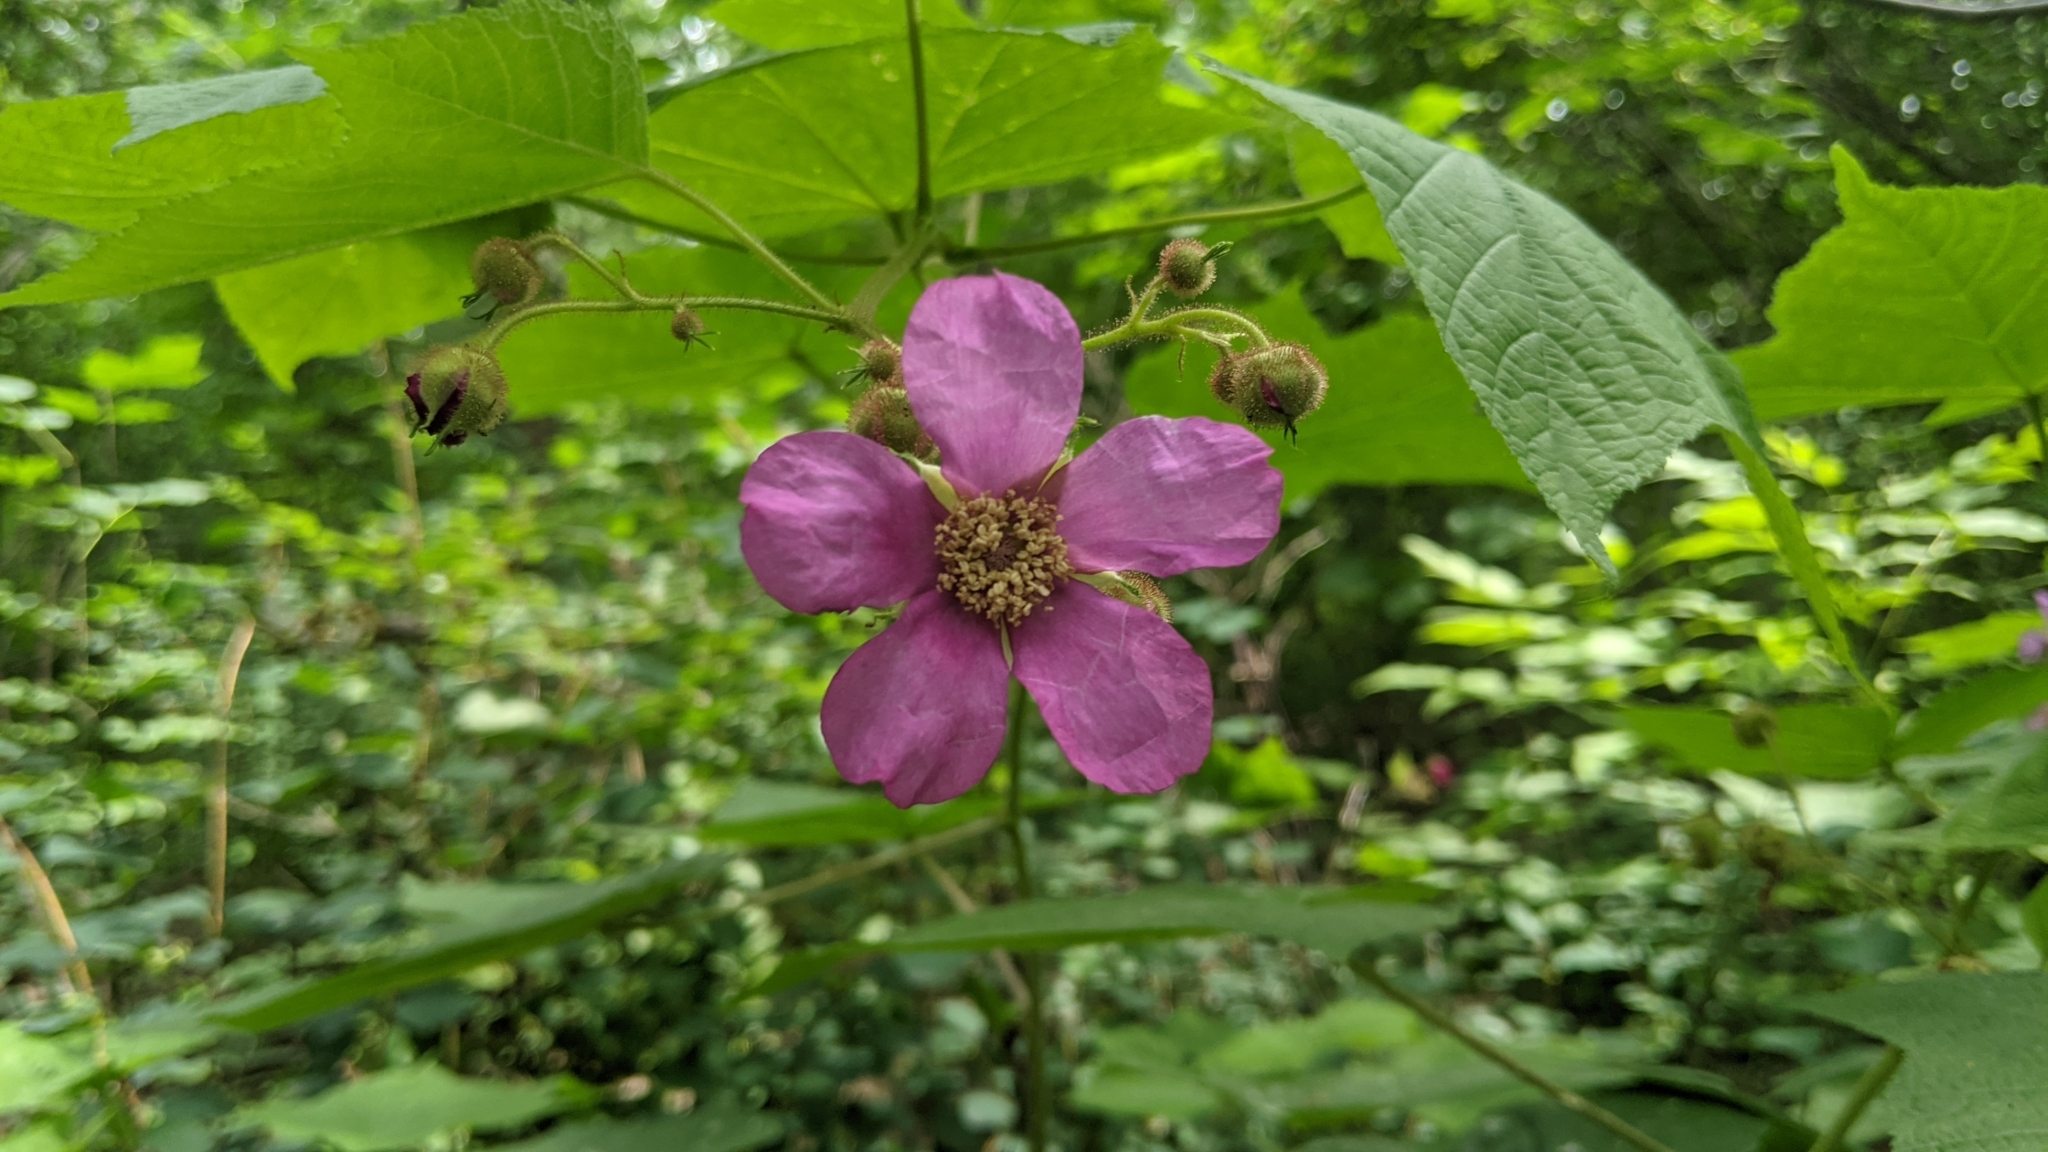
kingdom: Plantae
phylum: Tracheophyta
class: Magnoliopsida
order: Rosales
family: Rosaceae
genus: Rubus
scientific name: Rubus odoratus
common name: Purple-flowered raspberry
